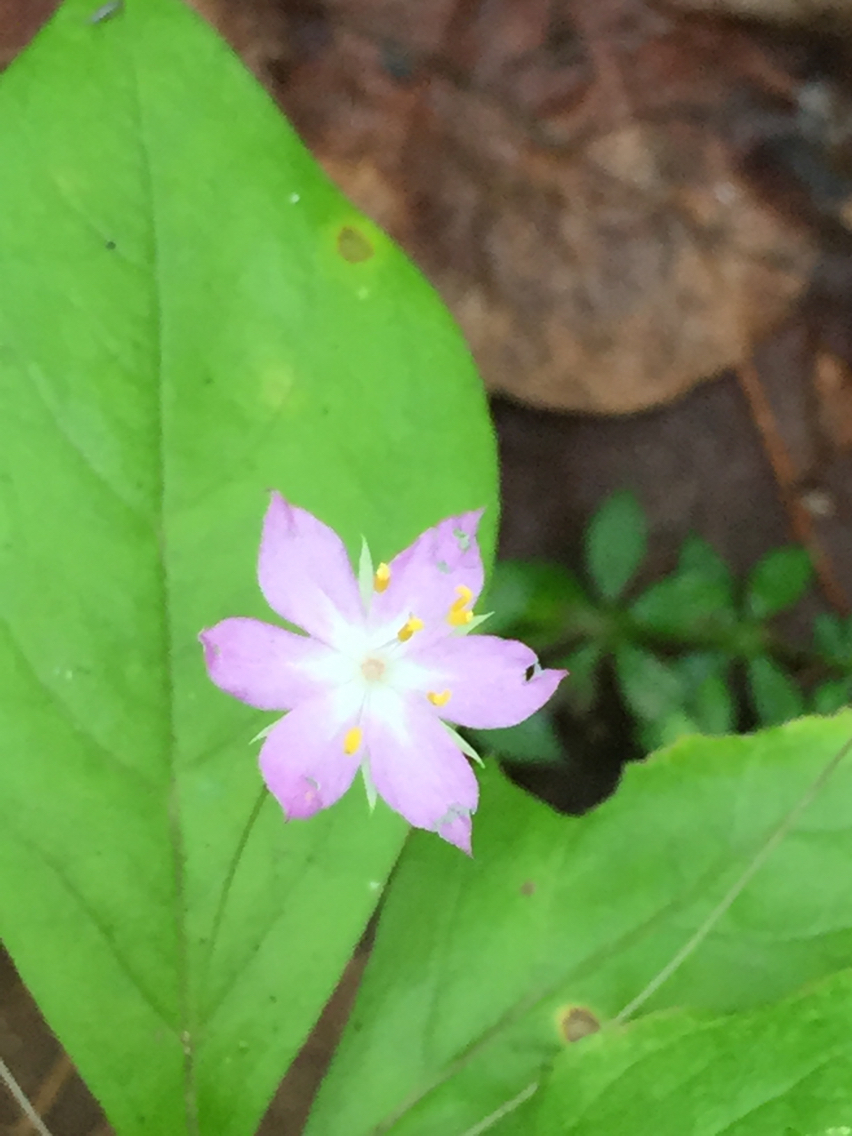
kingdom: Plantae
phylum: Tracheophyta
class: Magnoliopsida
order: Ericales
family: Primulaceae
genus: Lysimachia
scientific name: Lysimachia latifolia
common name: Pacific starflower
